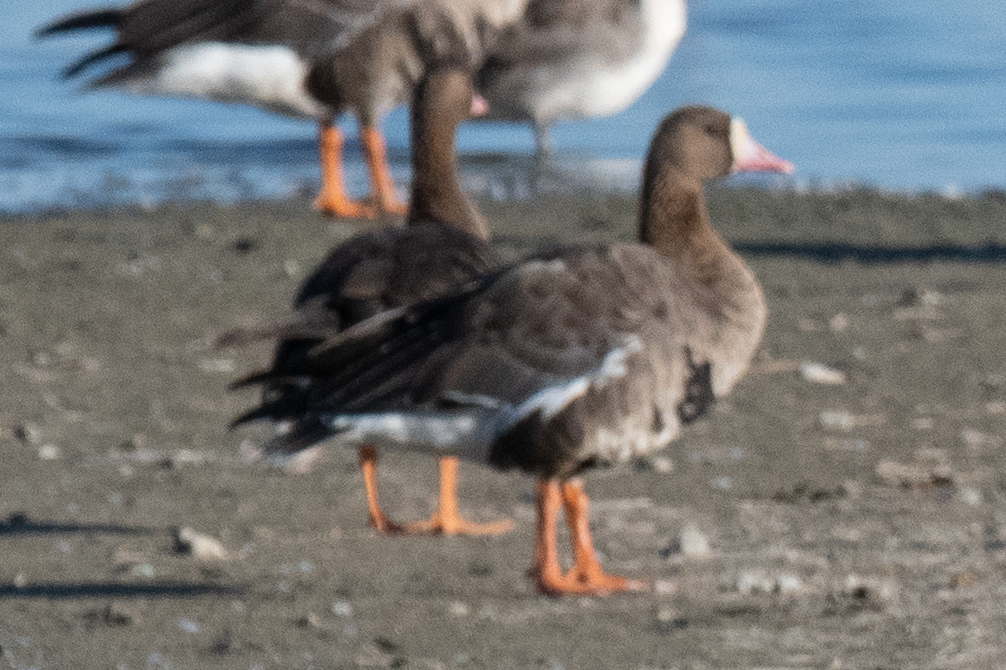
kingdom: Animalia
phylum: Chordata
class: Aves
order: Anseriformes
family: Anatidae
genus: Anser
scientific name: Anser albifrons
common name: Greater white-fronted goose
